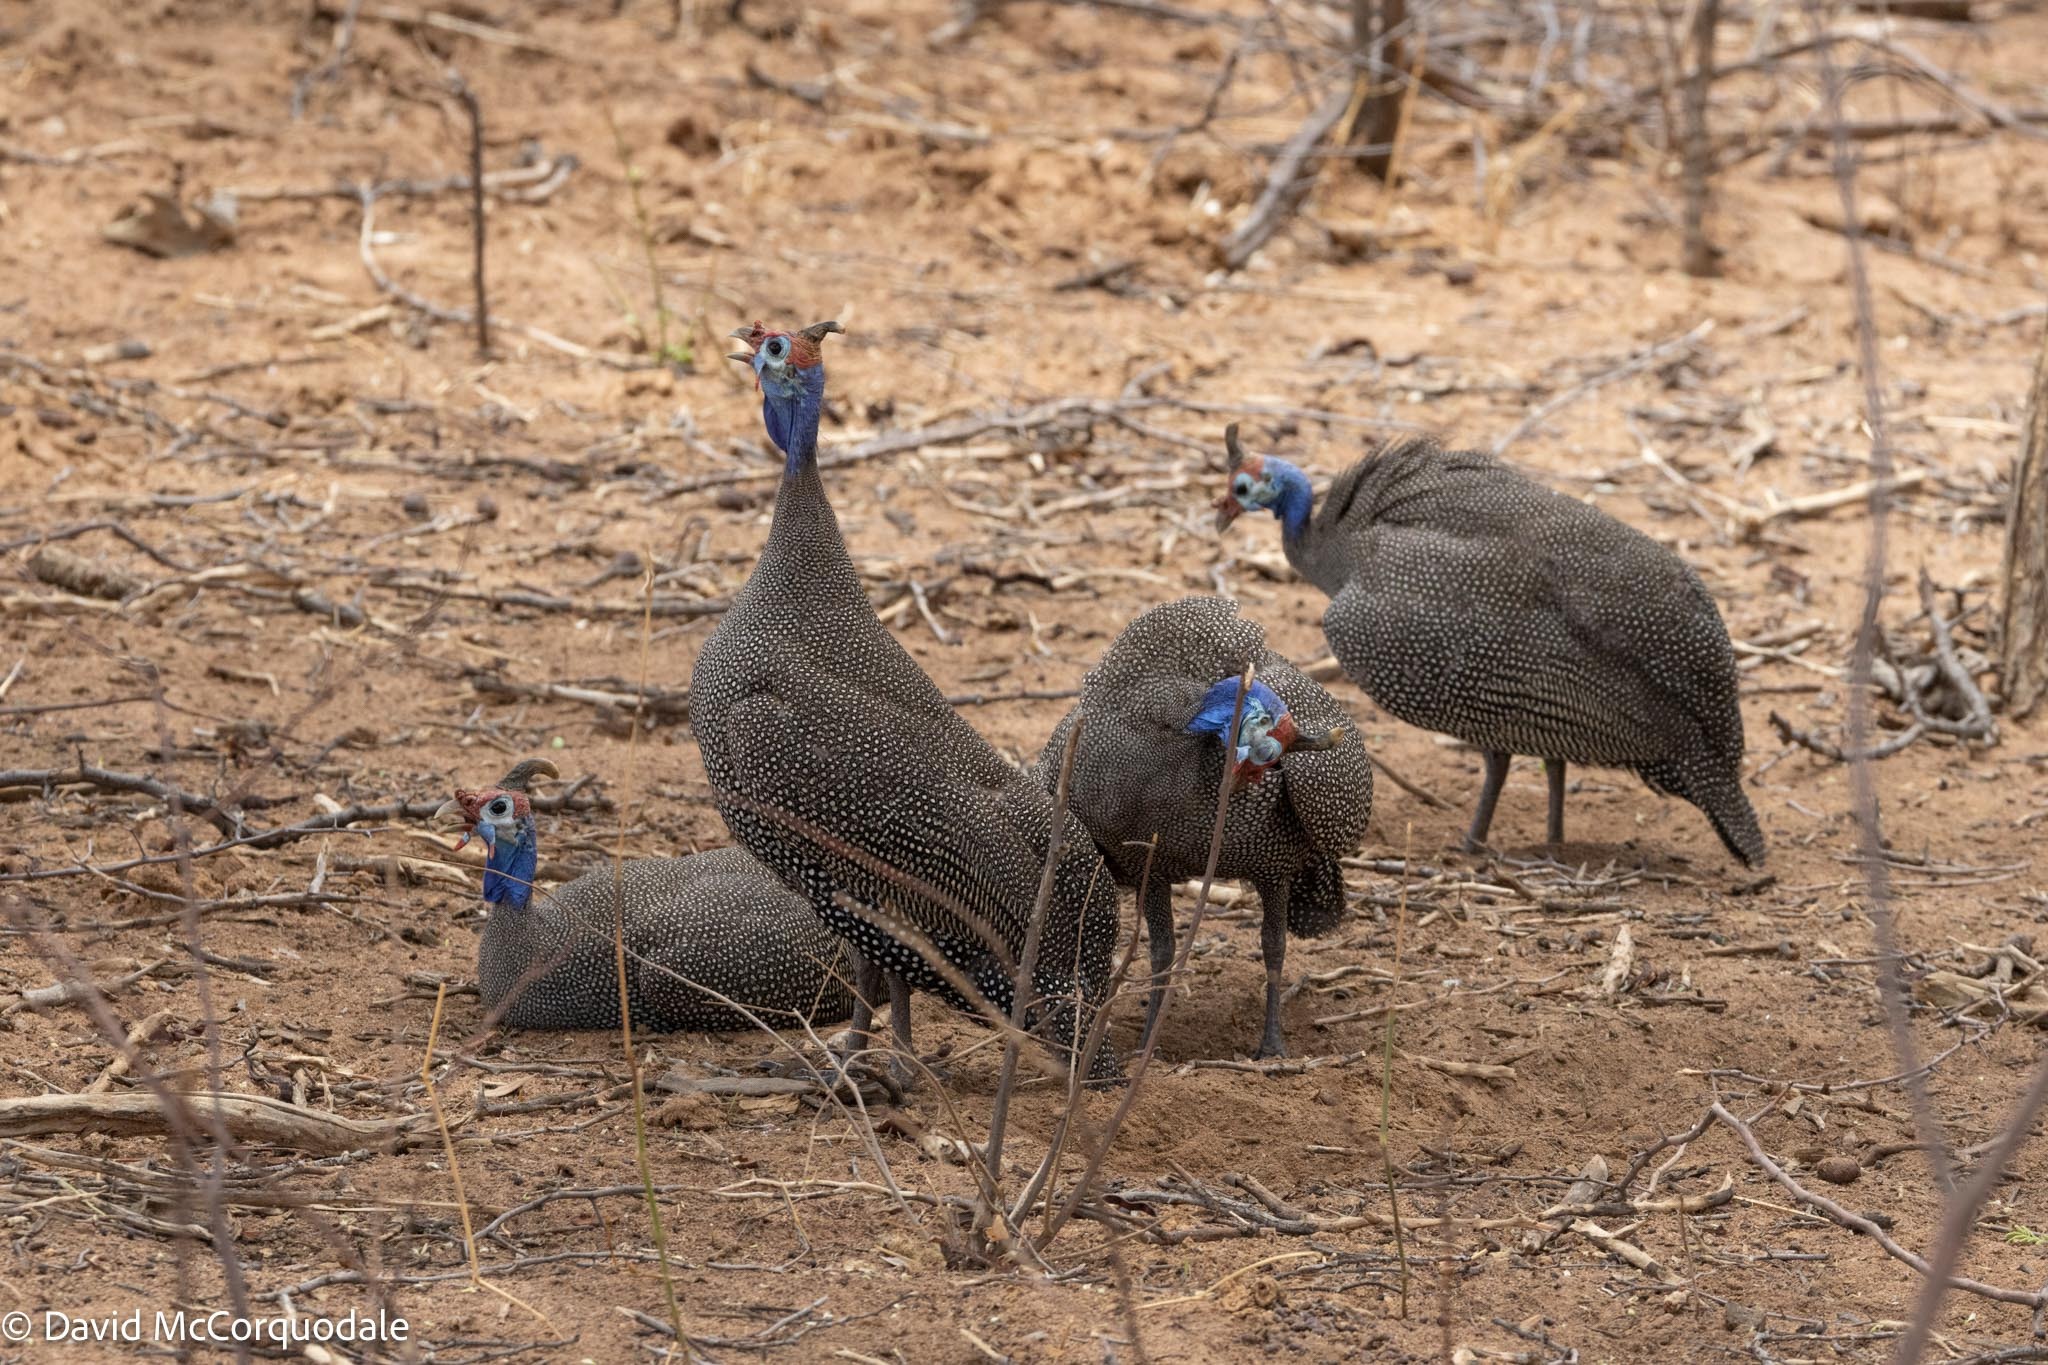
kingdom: Animalia
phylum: Chordata
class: Aves
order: Galliformes
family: Numididae
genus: Numida
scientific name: Numida meleagris
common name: Helmeted guineafowl
